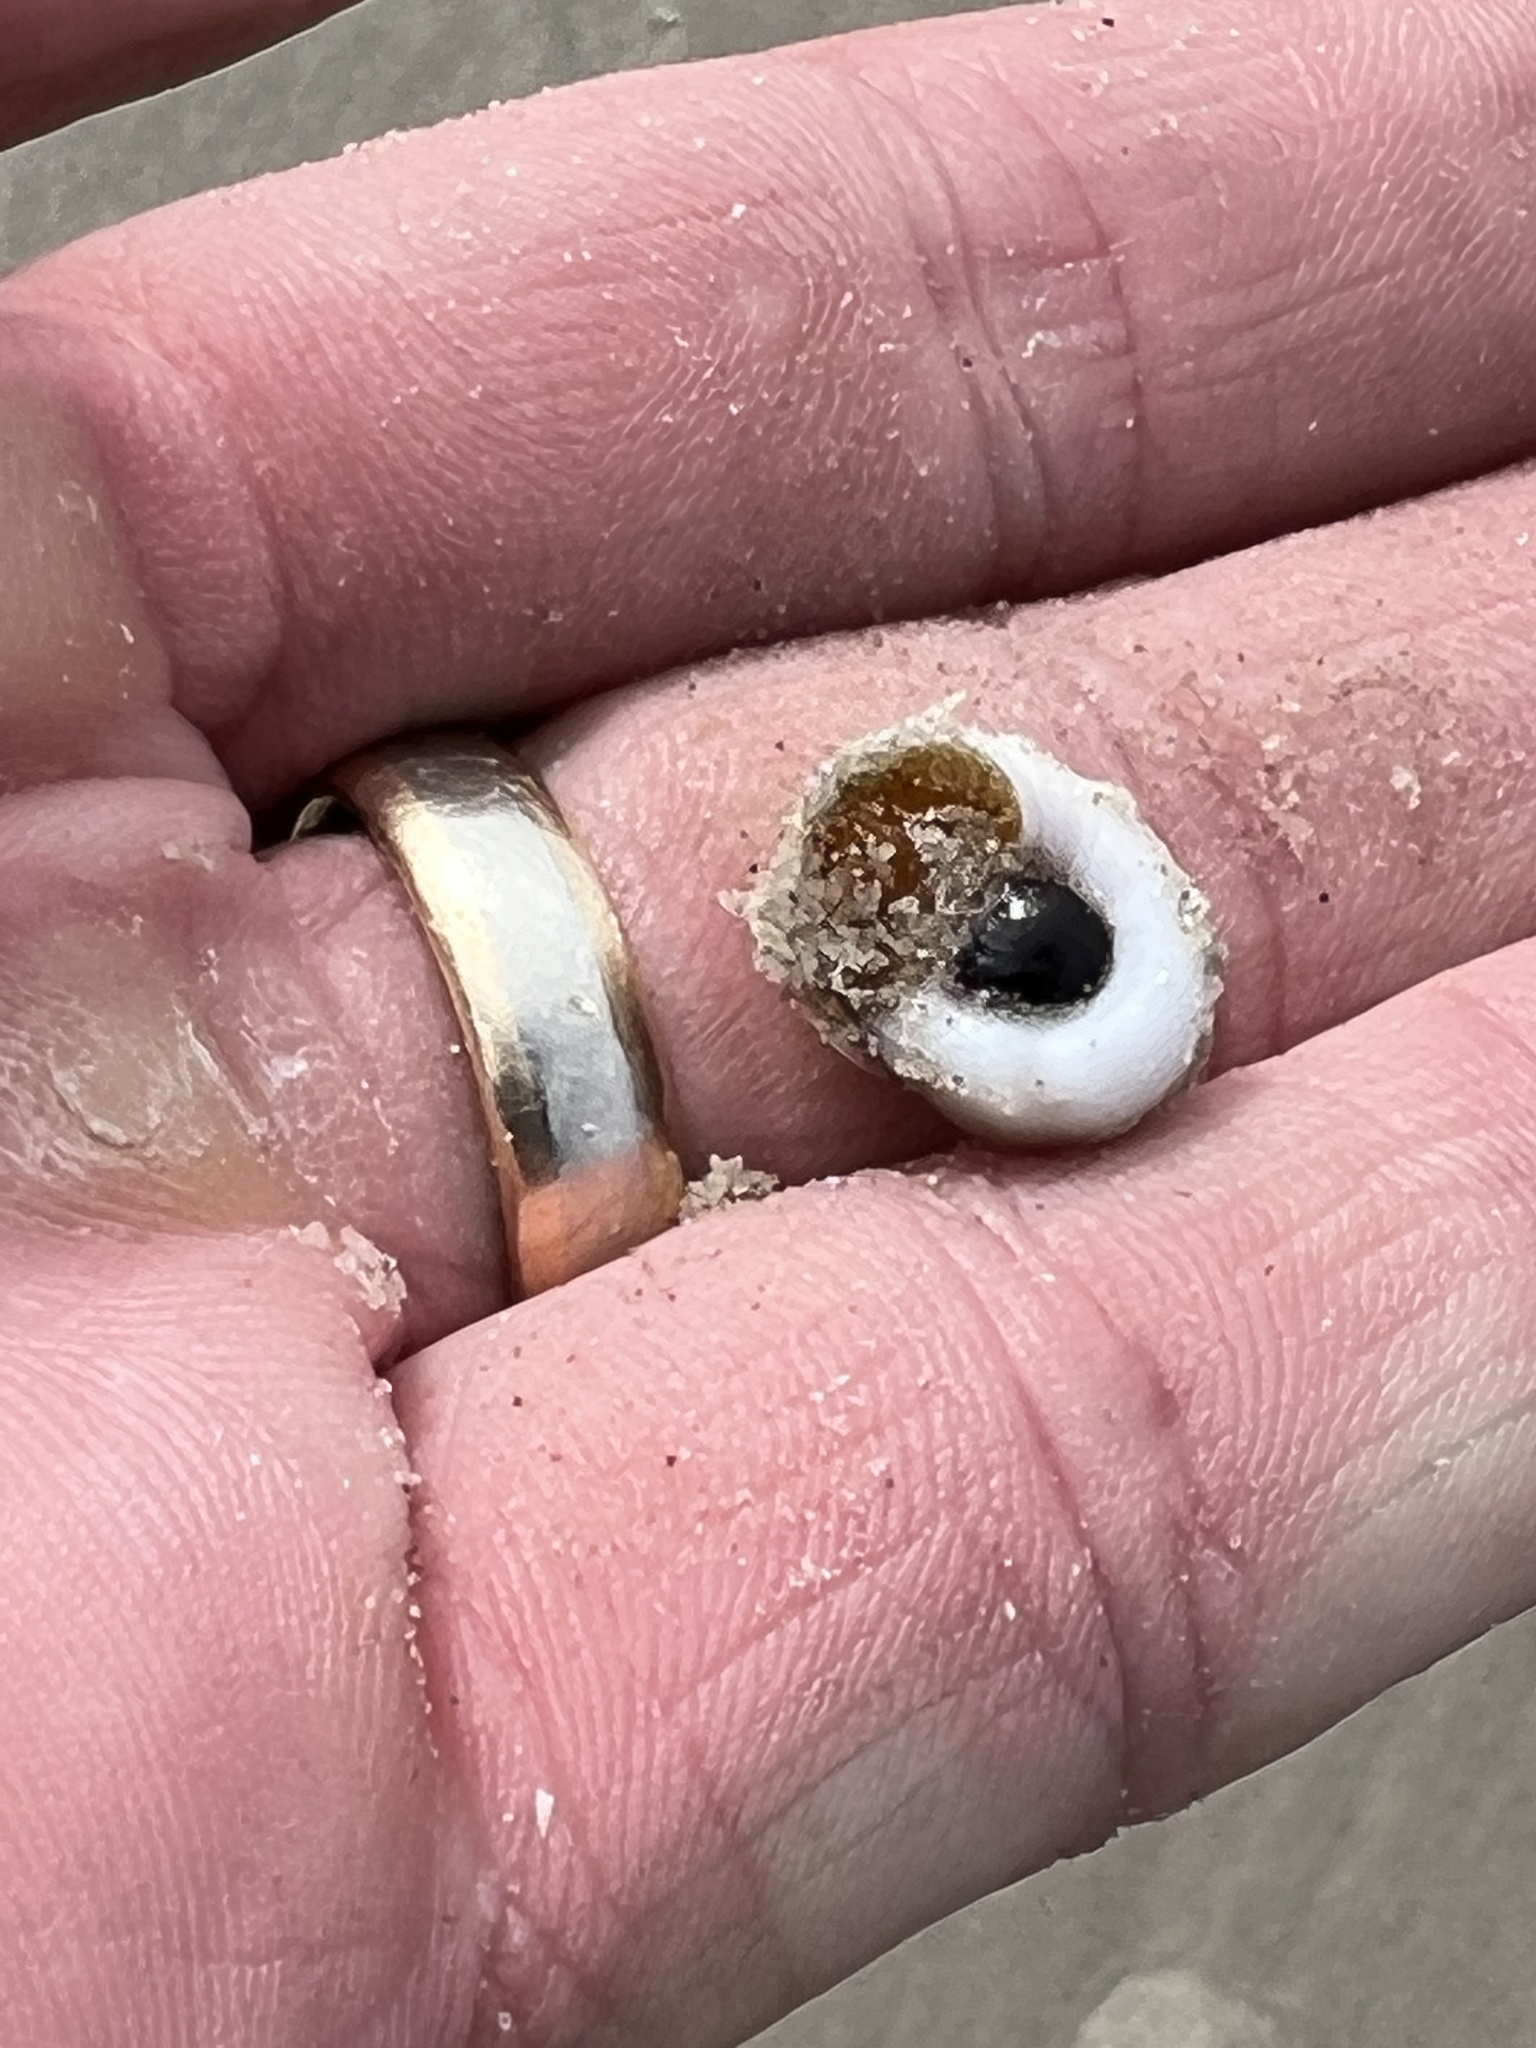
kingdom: Animalia
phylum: Mollusca
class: Gastropoda
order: Littorinimorpha
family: Naticidae
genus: Neverita
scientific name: Neverita duplicata
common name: Lobed moonsnail
